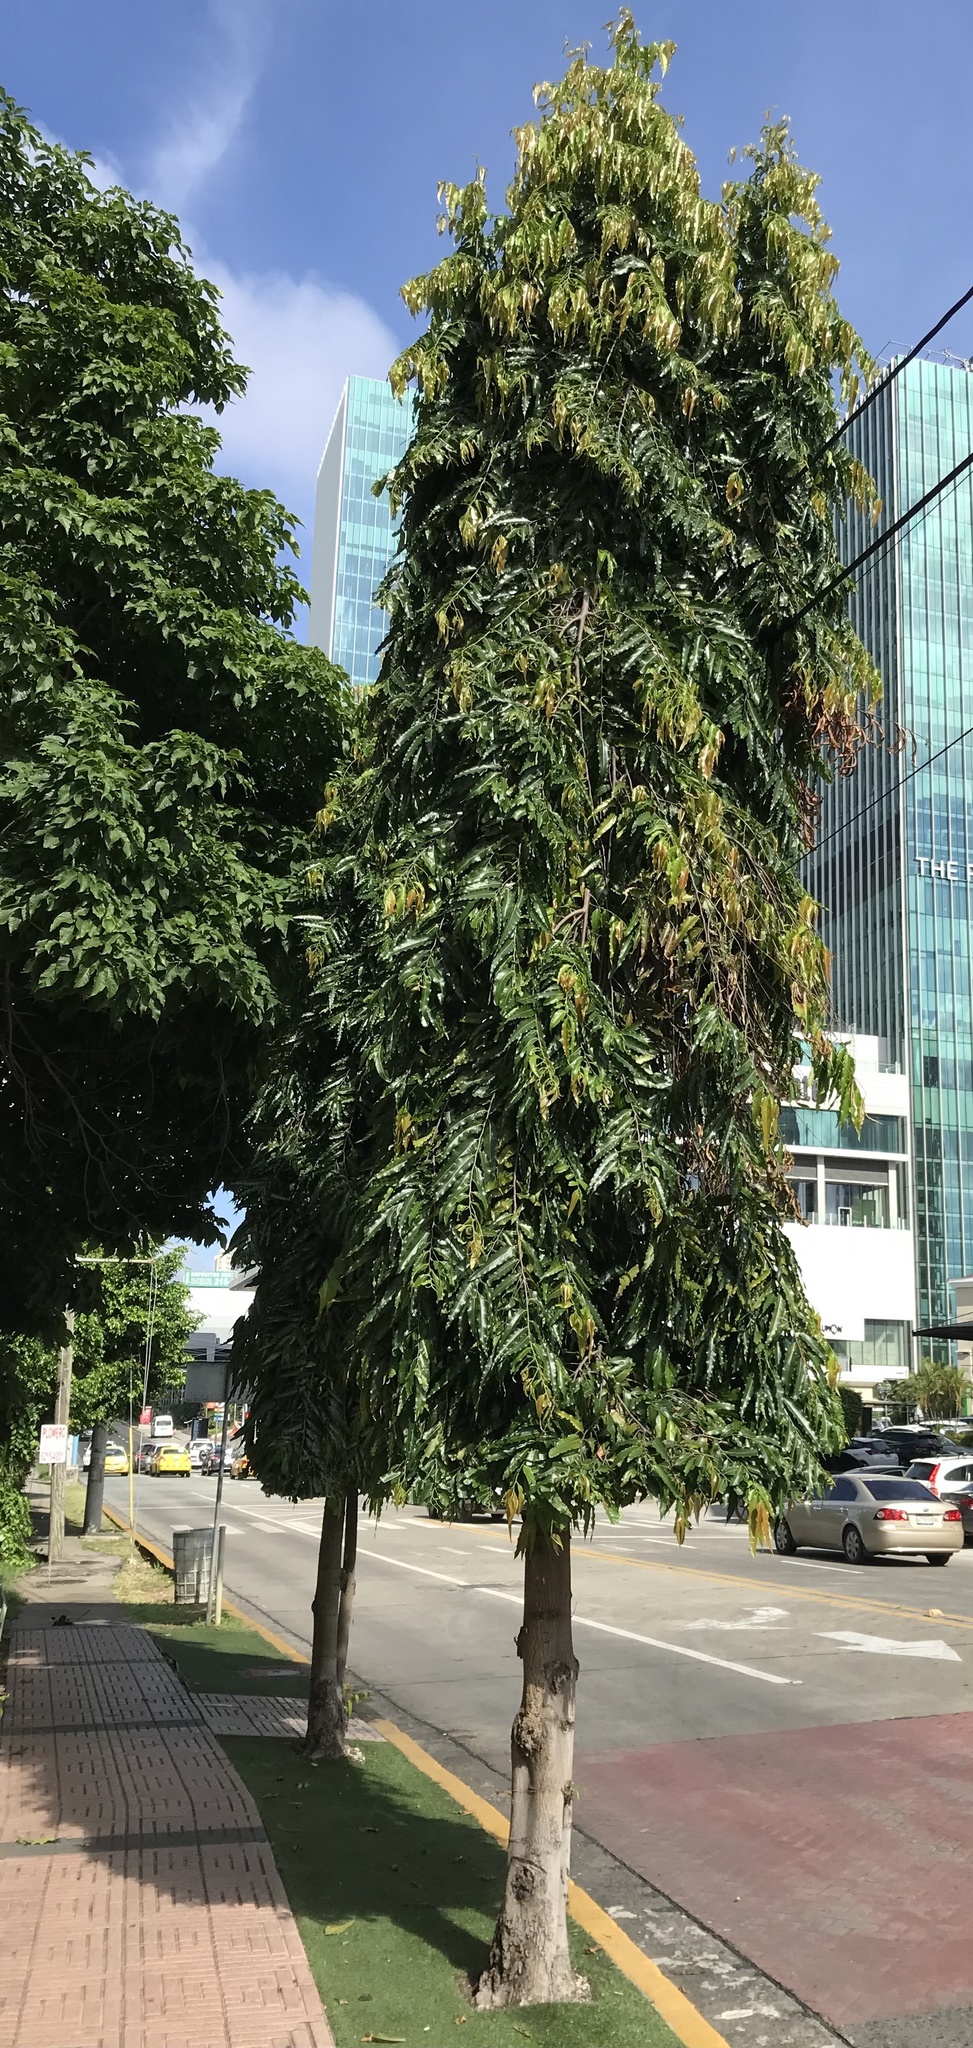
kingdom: Plantae
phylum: Tracheophyta
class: Magnoliopsida
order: Magnoliales
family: Annonaceae
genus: Polyalthia
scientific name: Polyalthia longifolia
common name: Cemetery-tree
